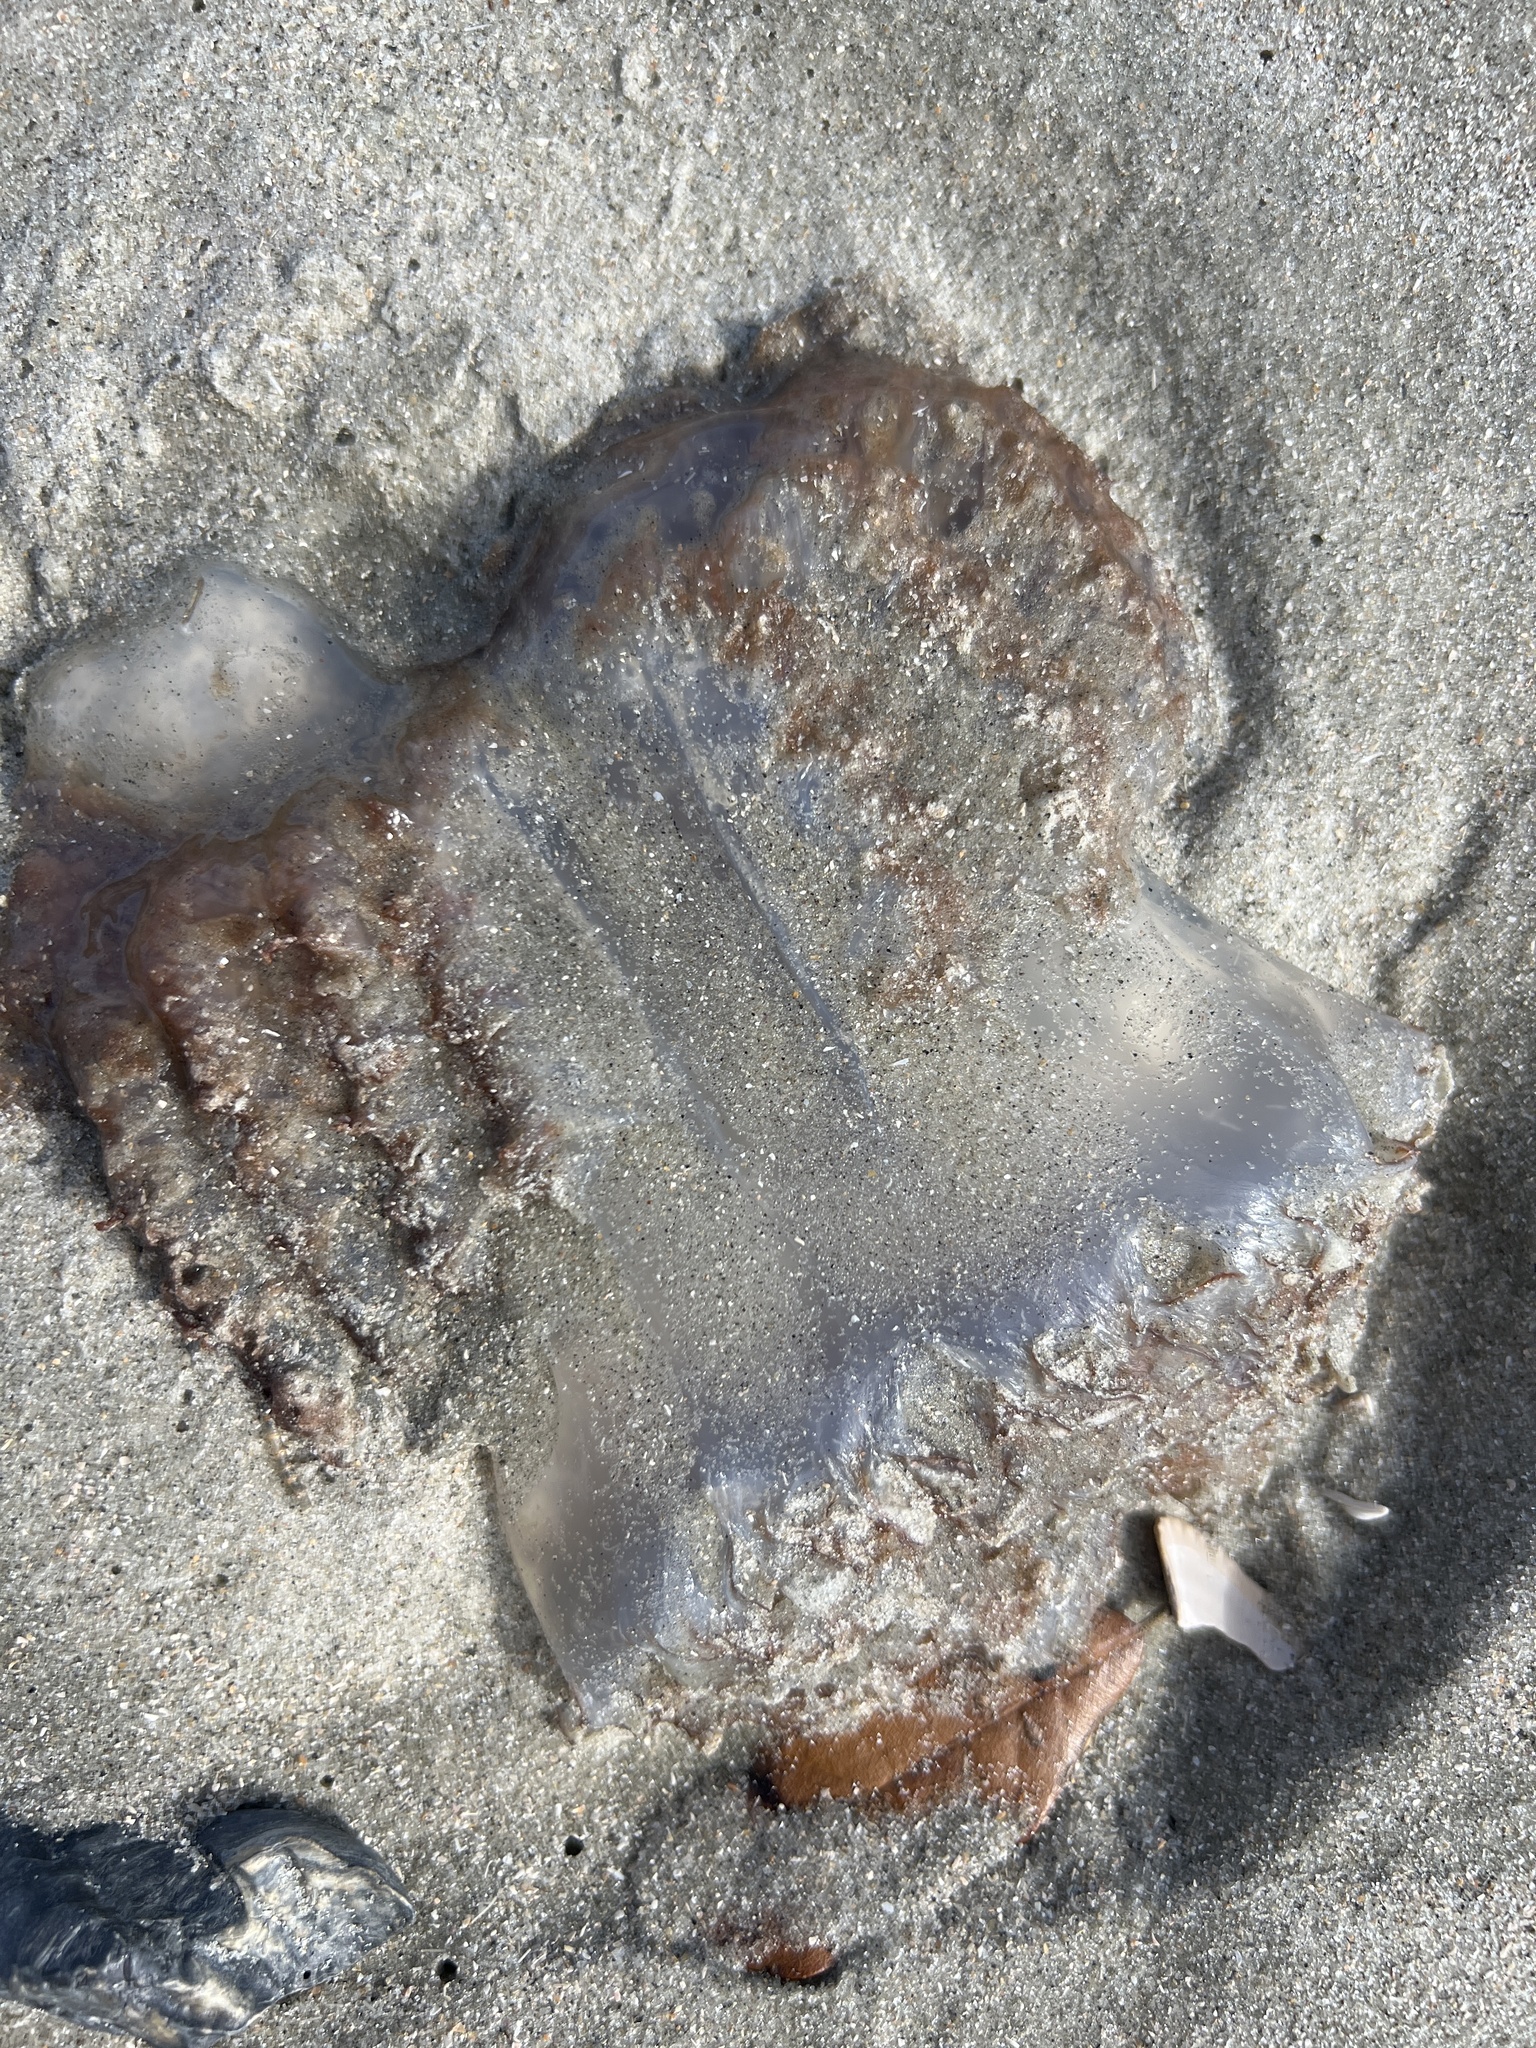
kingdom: Animalia
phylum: Cnidaria
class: Scyphozoa
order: Rhizostomeae
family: Stomolophidae
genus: Stomolophus
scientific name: Stomolophus meleagris
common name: Cabbagehead
